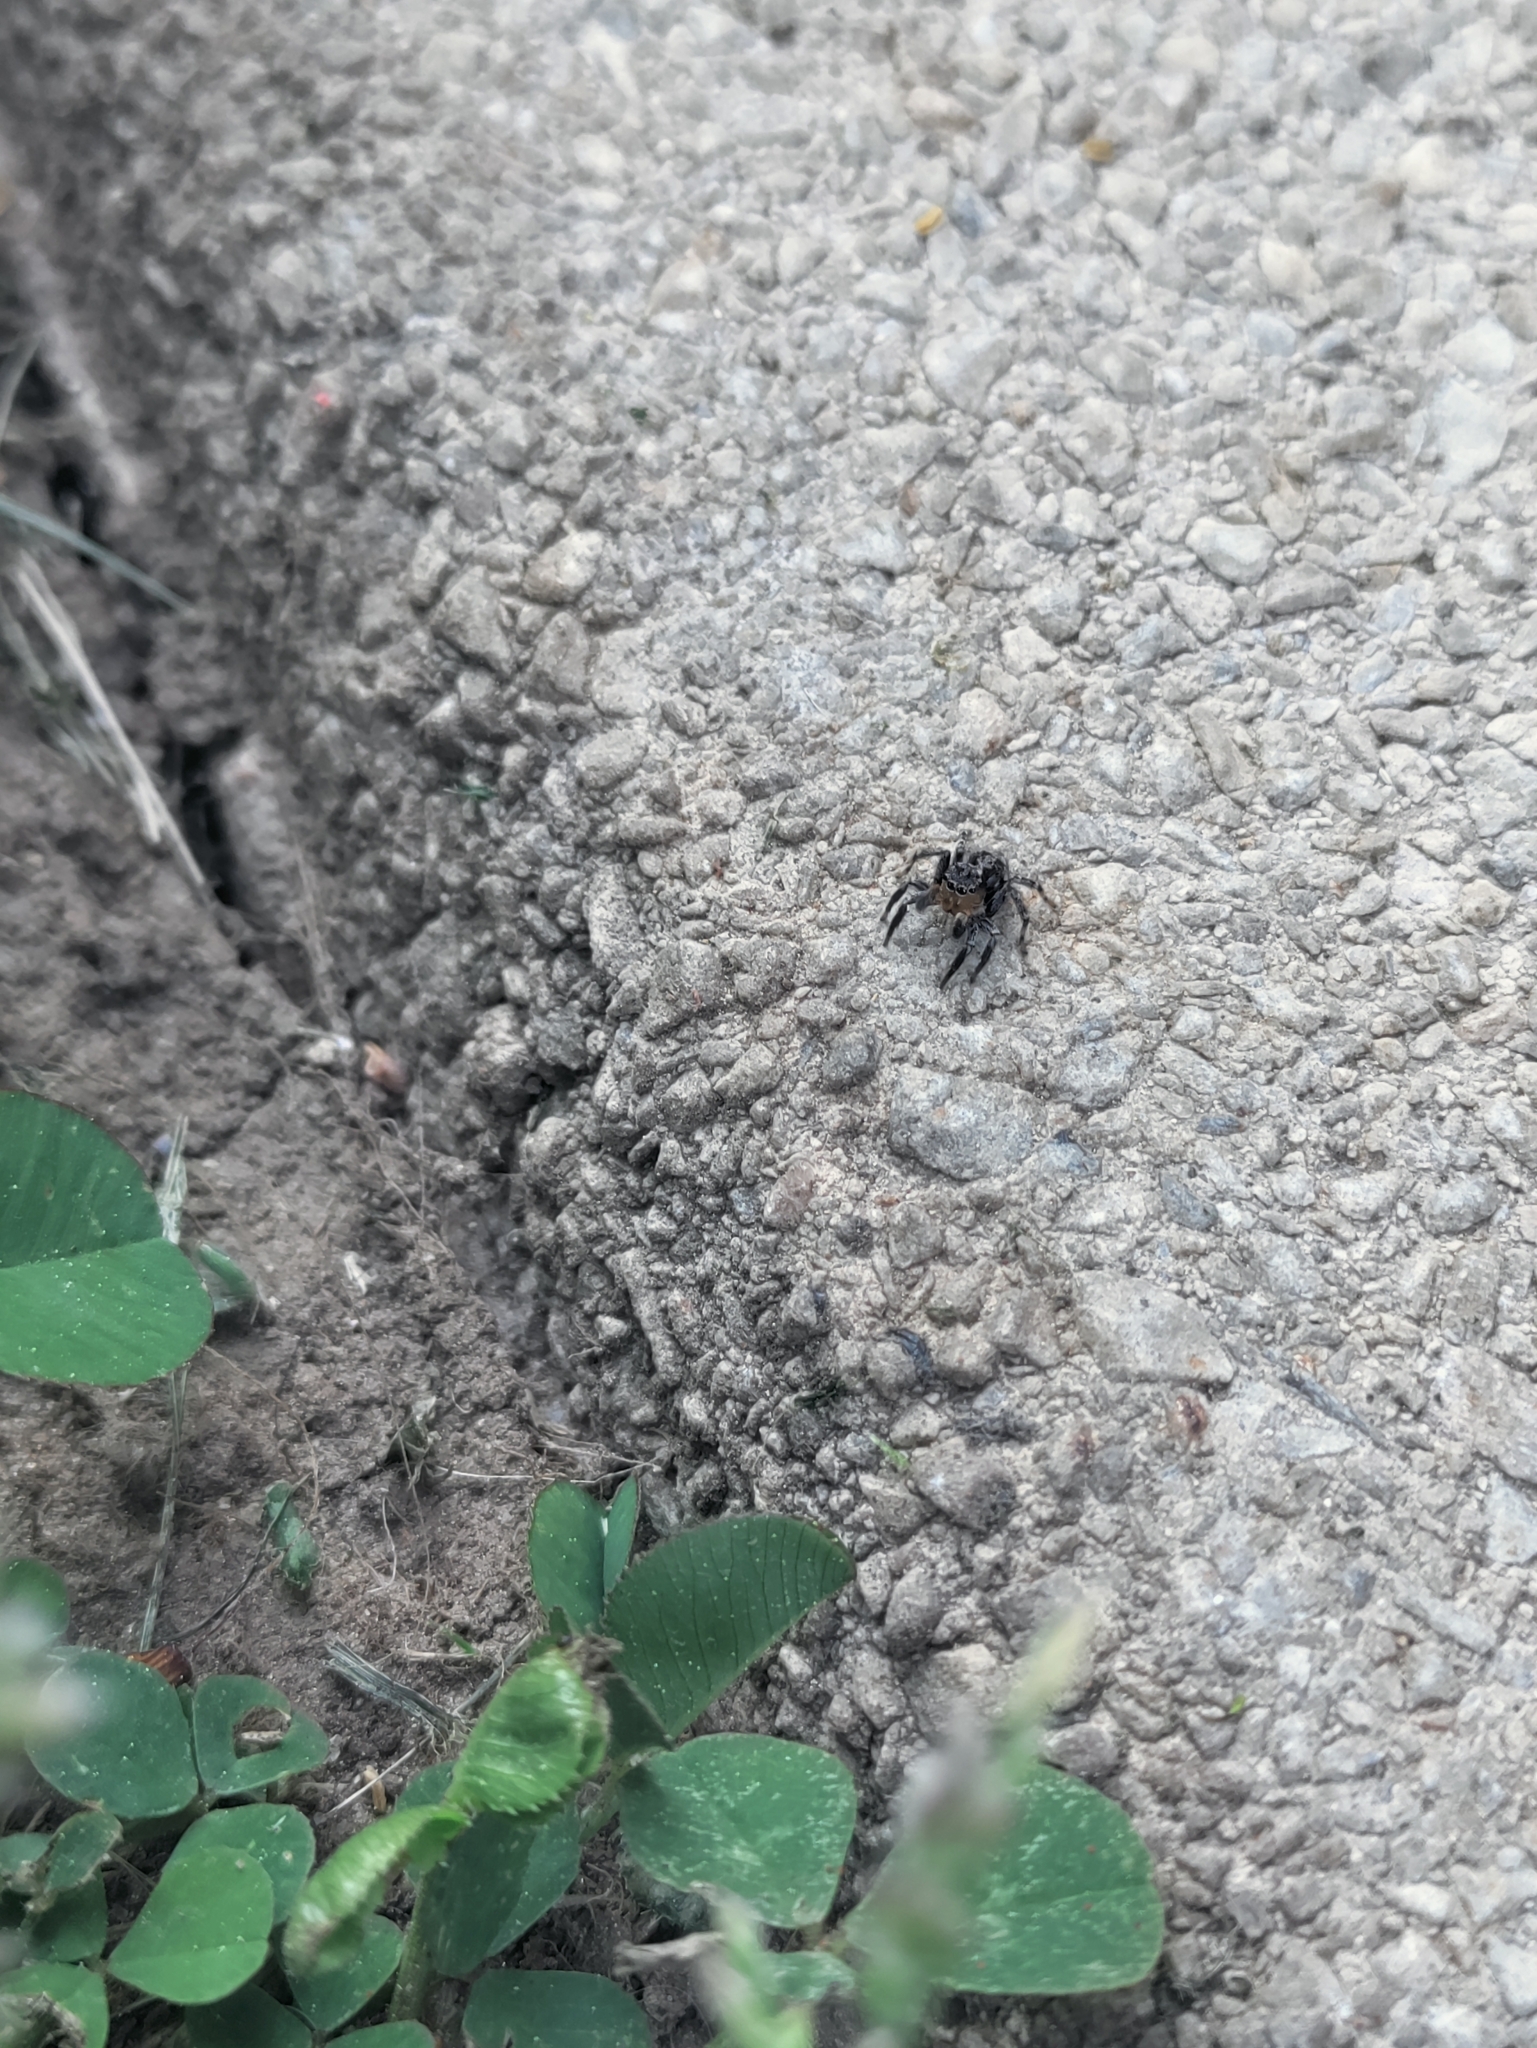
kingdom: Animalia
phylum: Arthropoda
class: Arachnida
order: Araneae
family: Salticidae
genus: Naphrys
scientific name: Naphrys pulex
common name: Flea jumping spider
